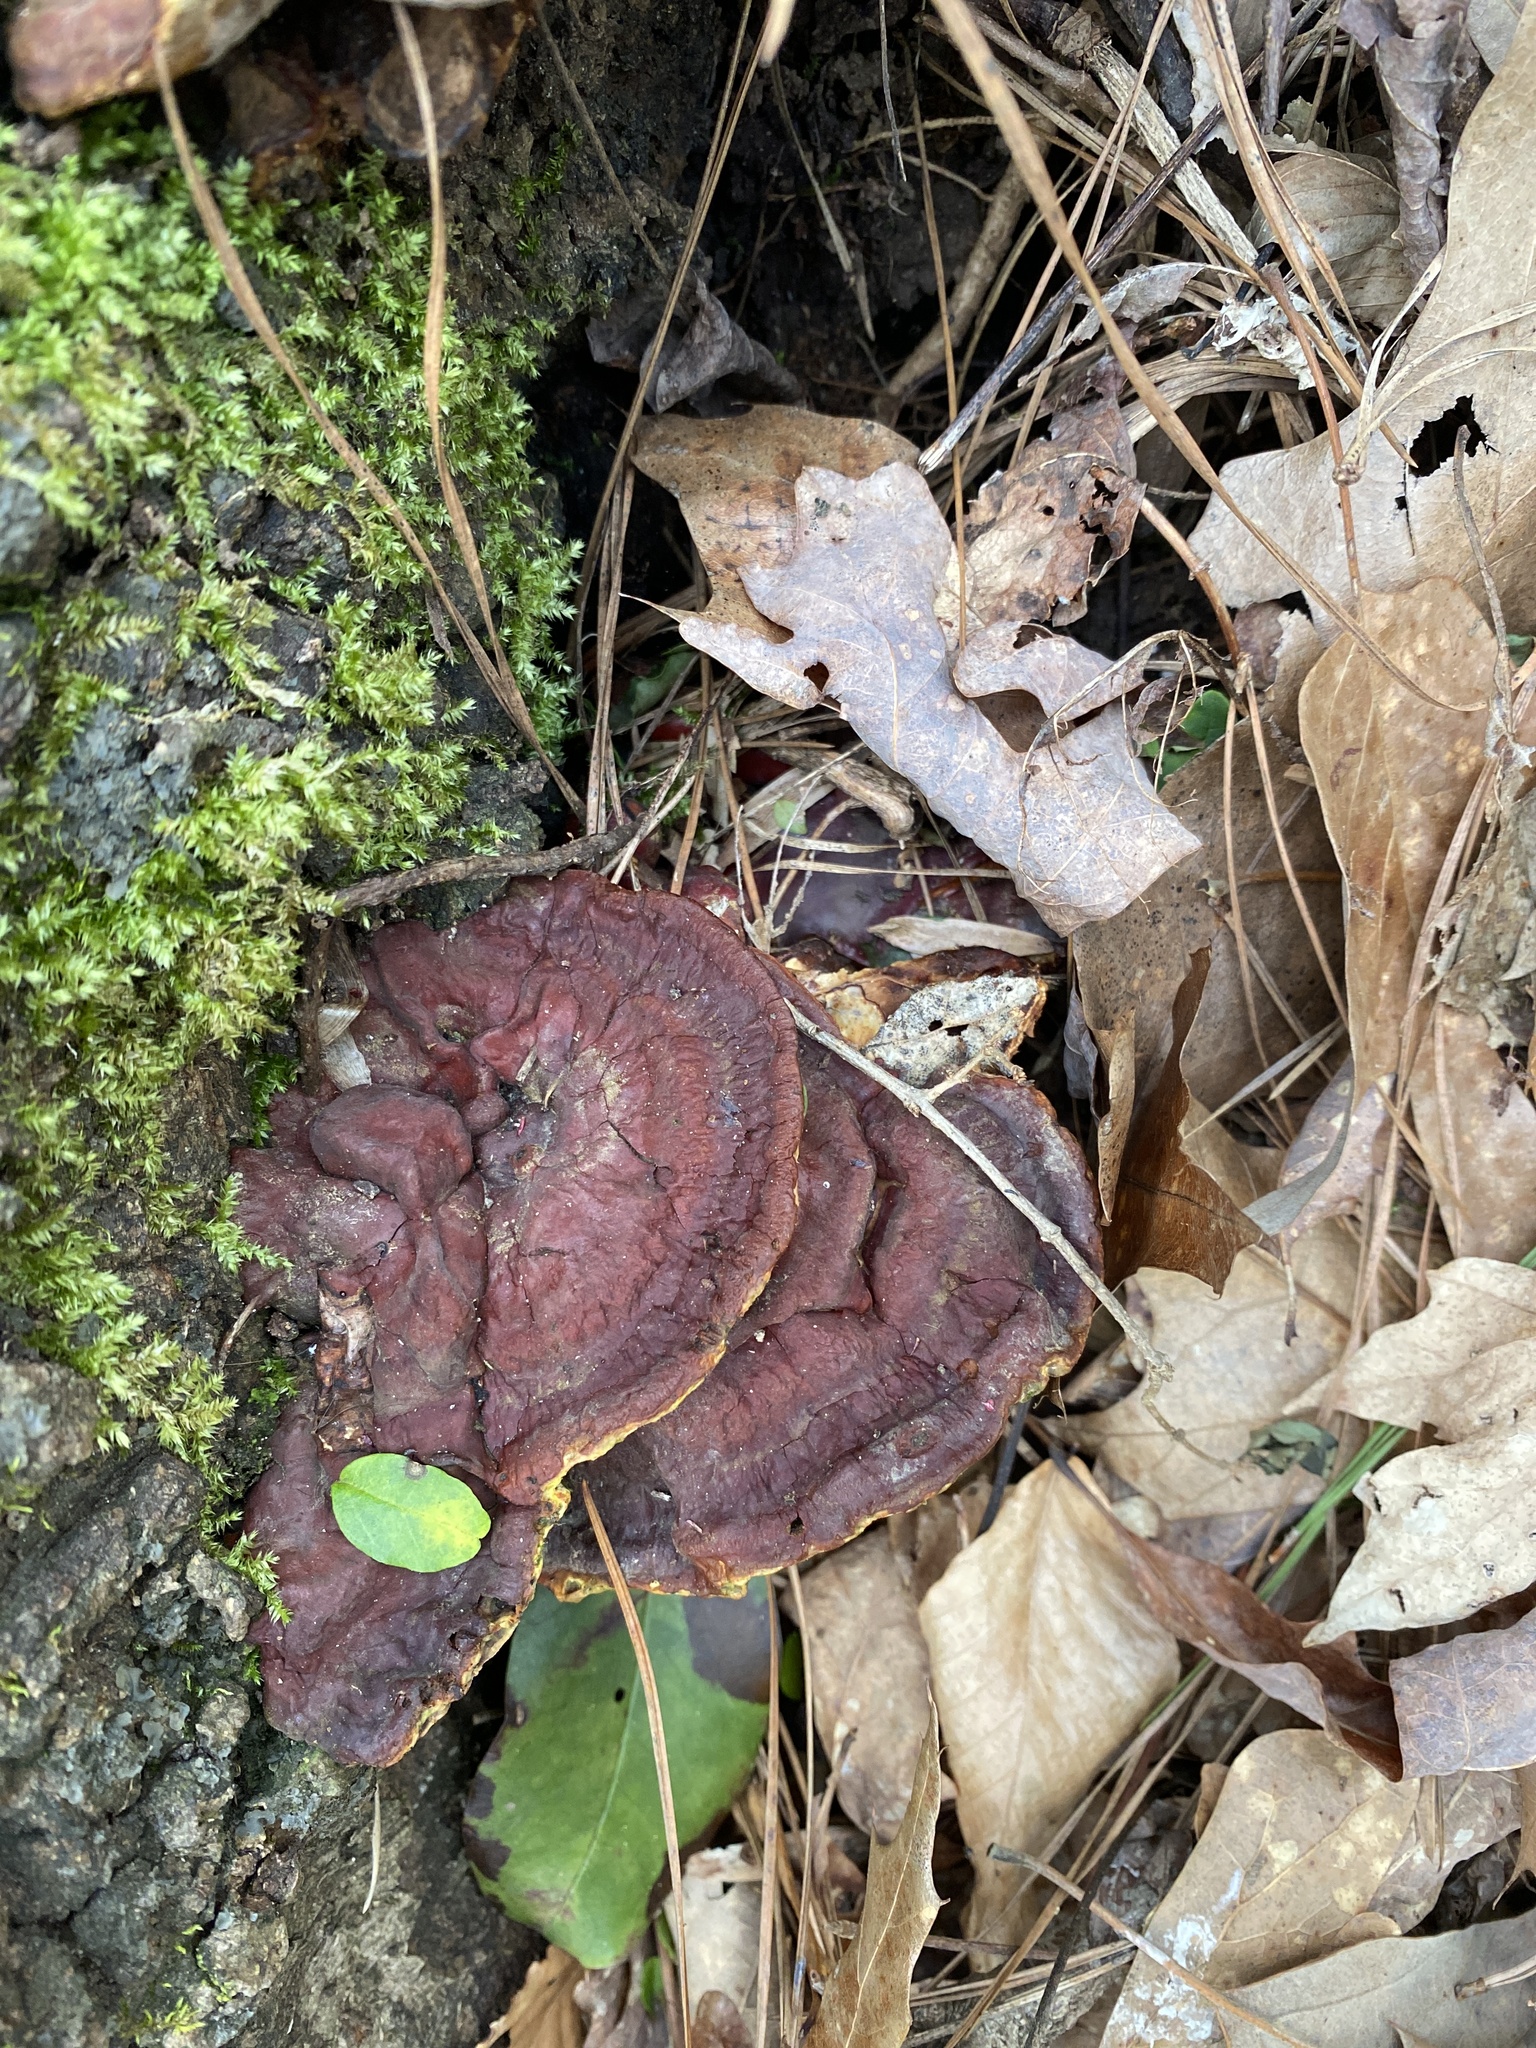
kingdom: Fungi
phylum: Basidiomycota
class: Agaricomycetes
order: Polyporales
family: Polyporaceae
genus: Ganoderma
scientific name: Ganoderma resinaceum
